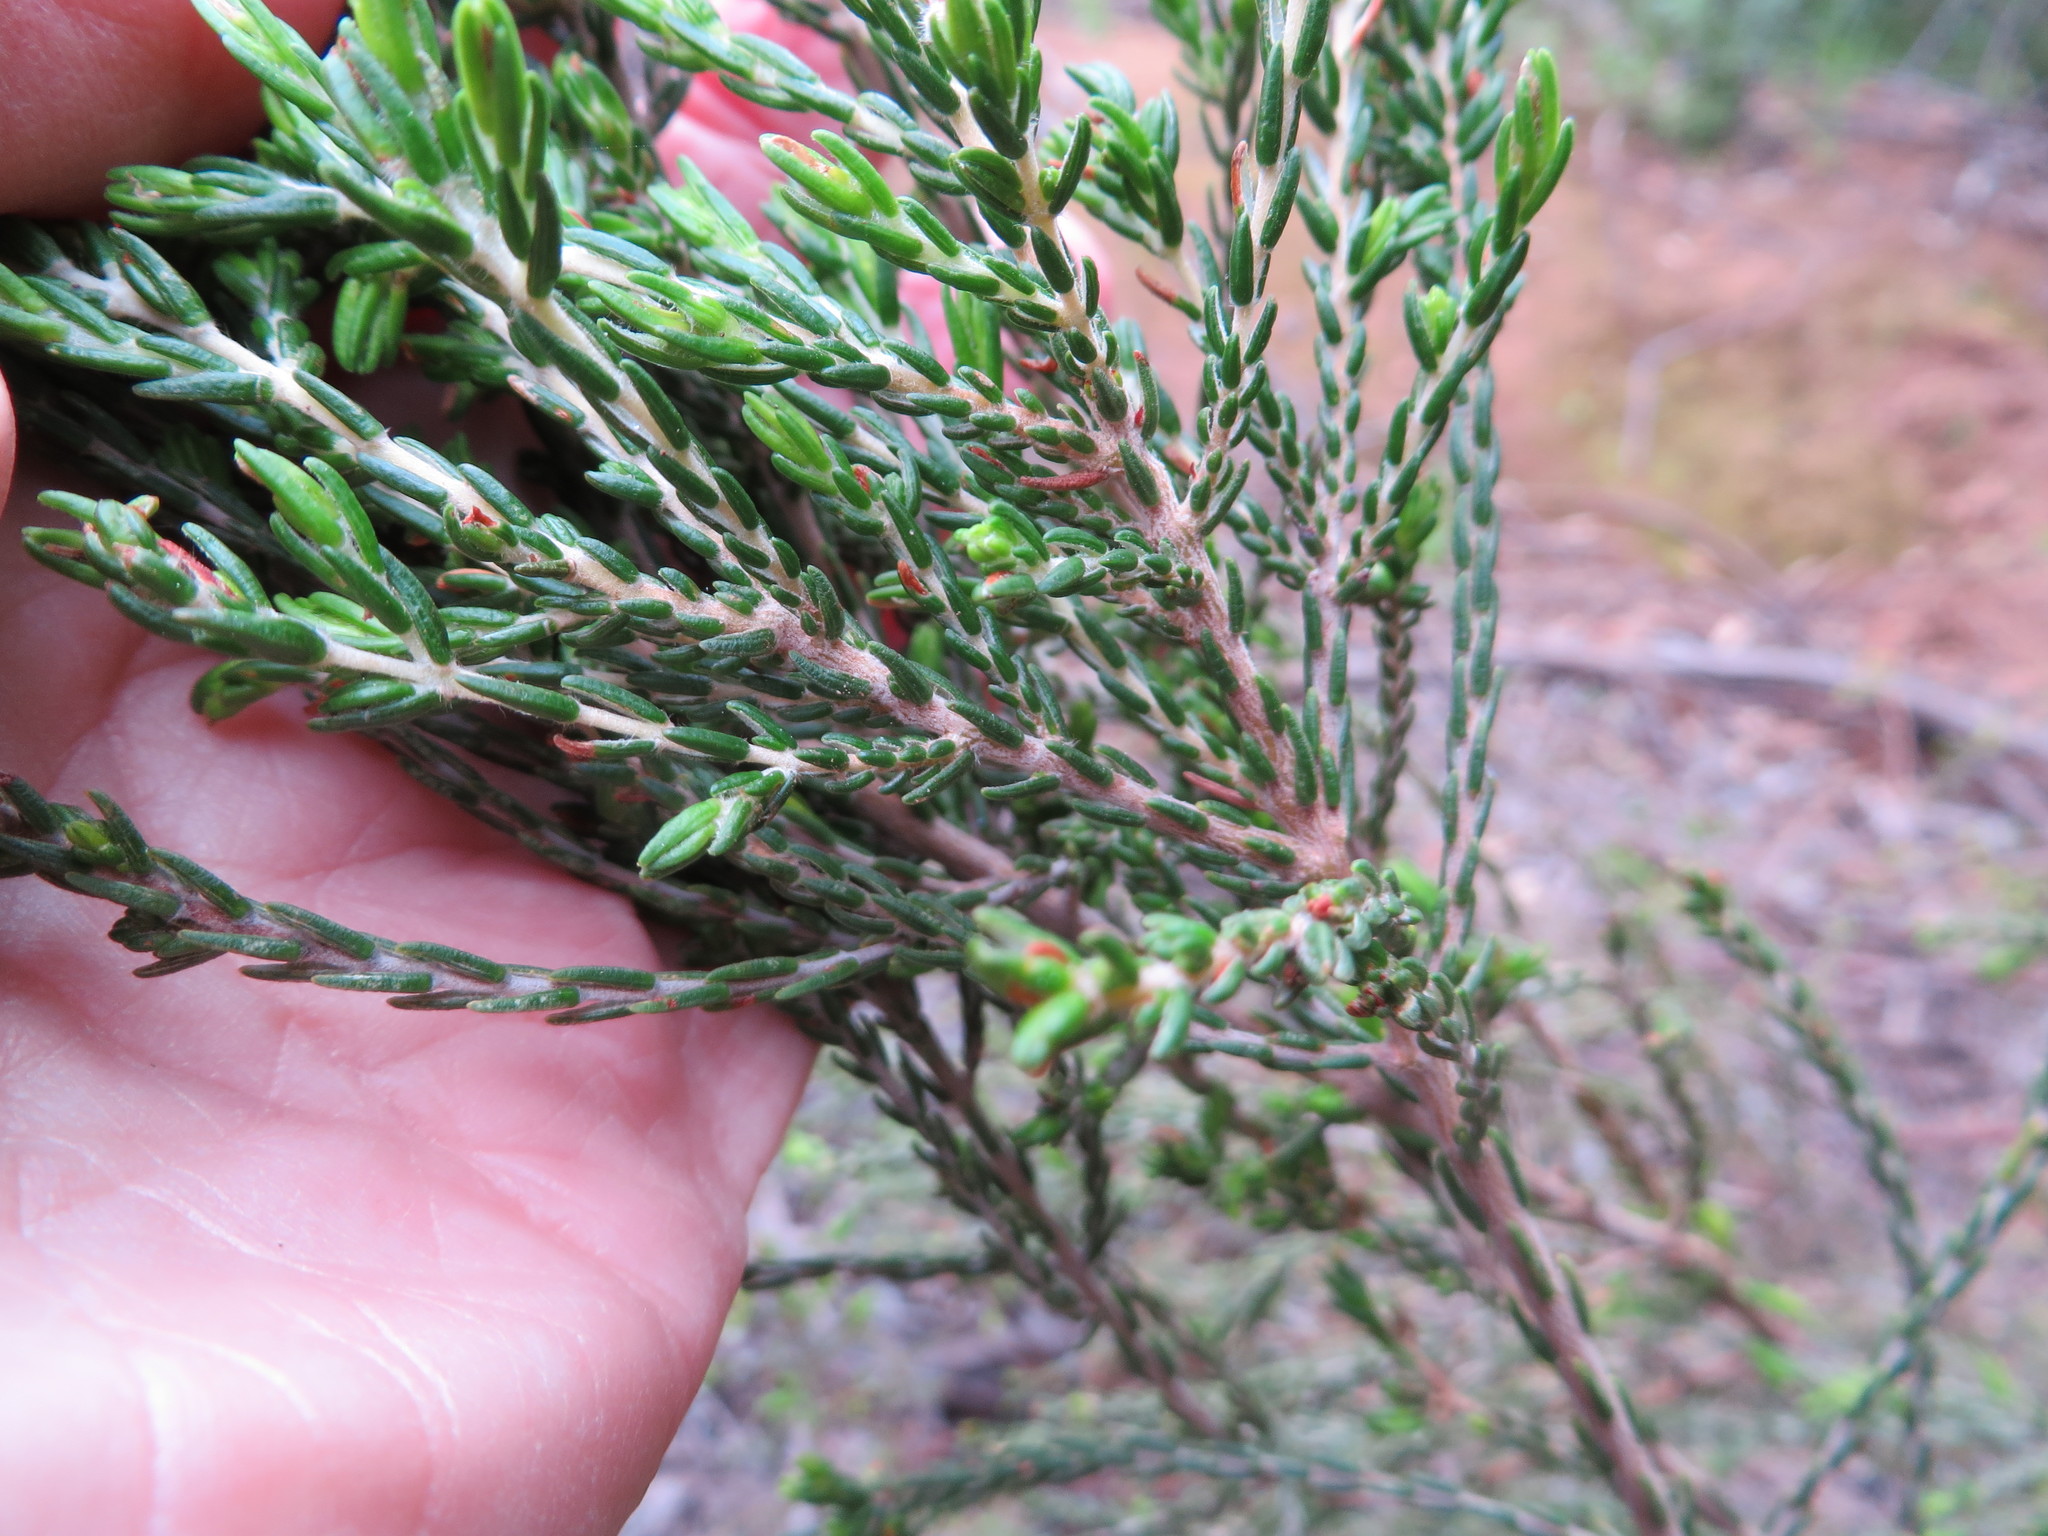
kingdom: Plantae
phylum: Tracheophyta
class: Magnoliopsida
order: Malvales
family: Thymelaeaceae
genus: Passerina
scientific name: Passerina corymbosa
